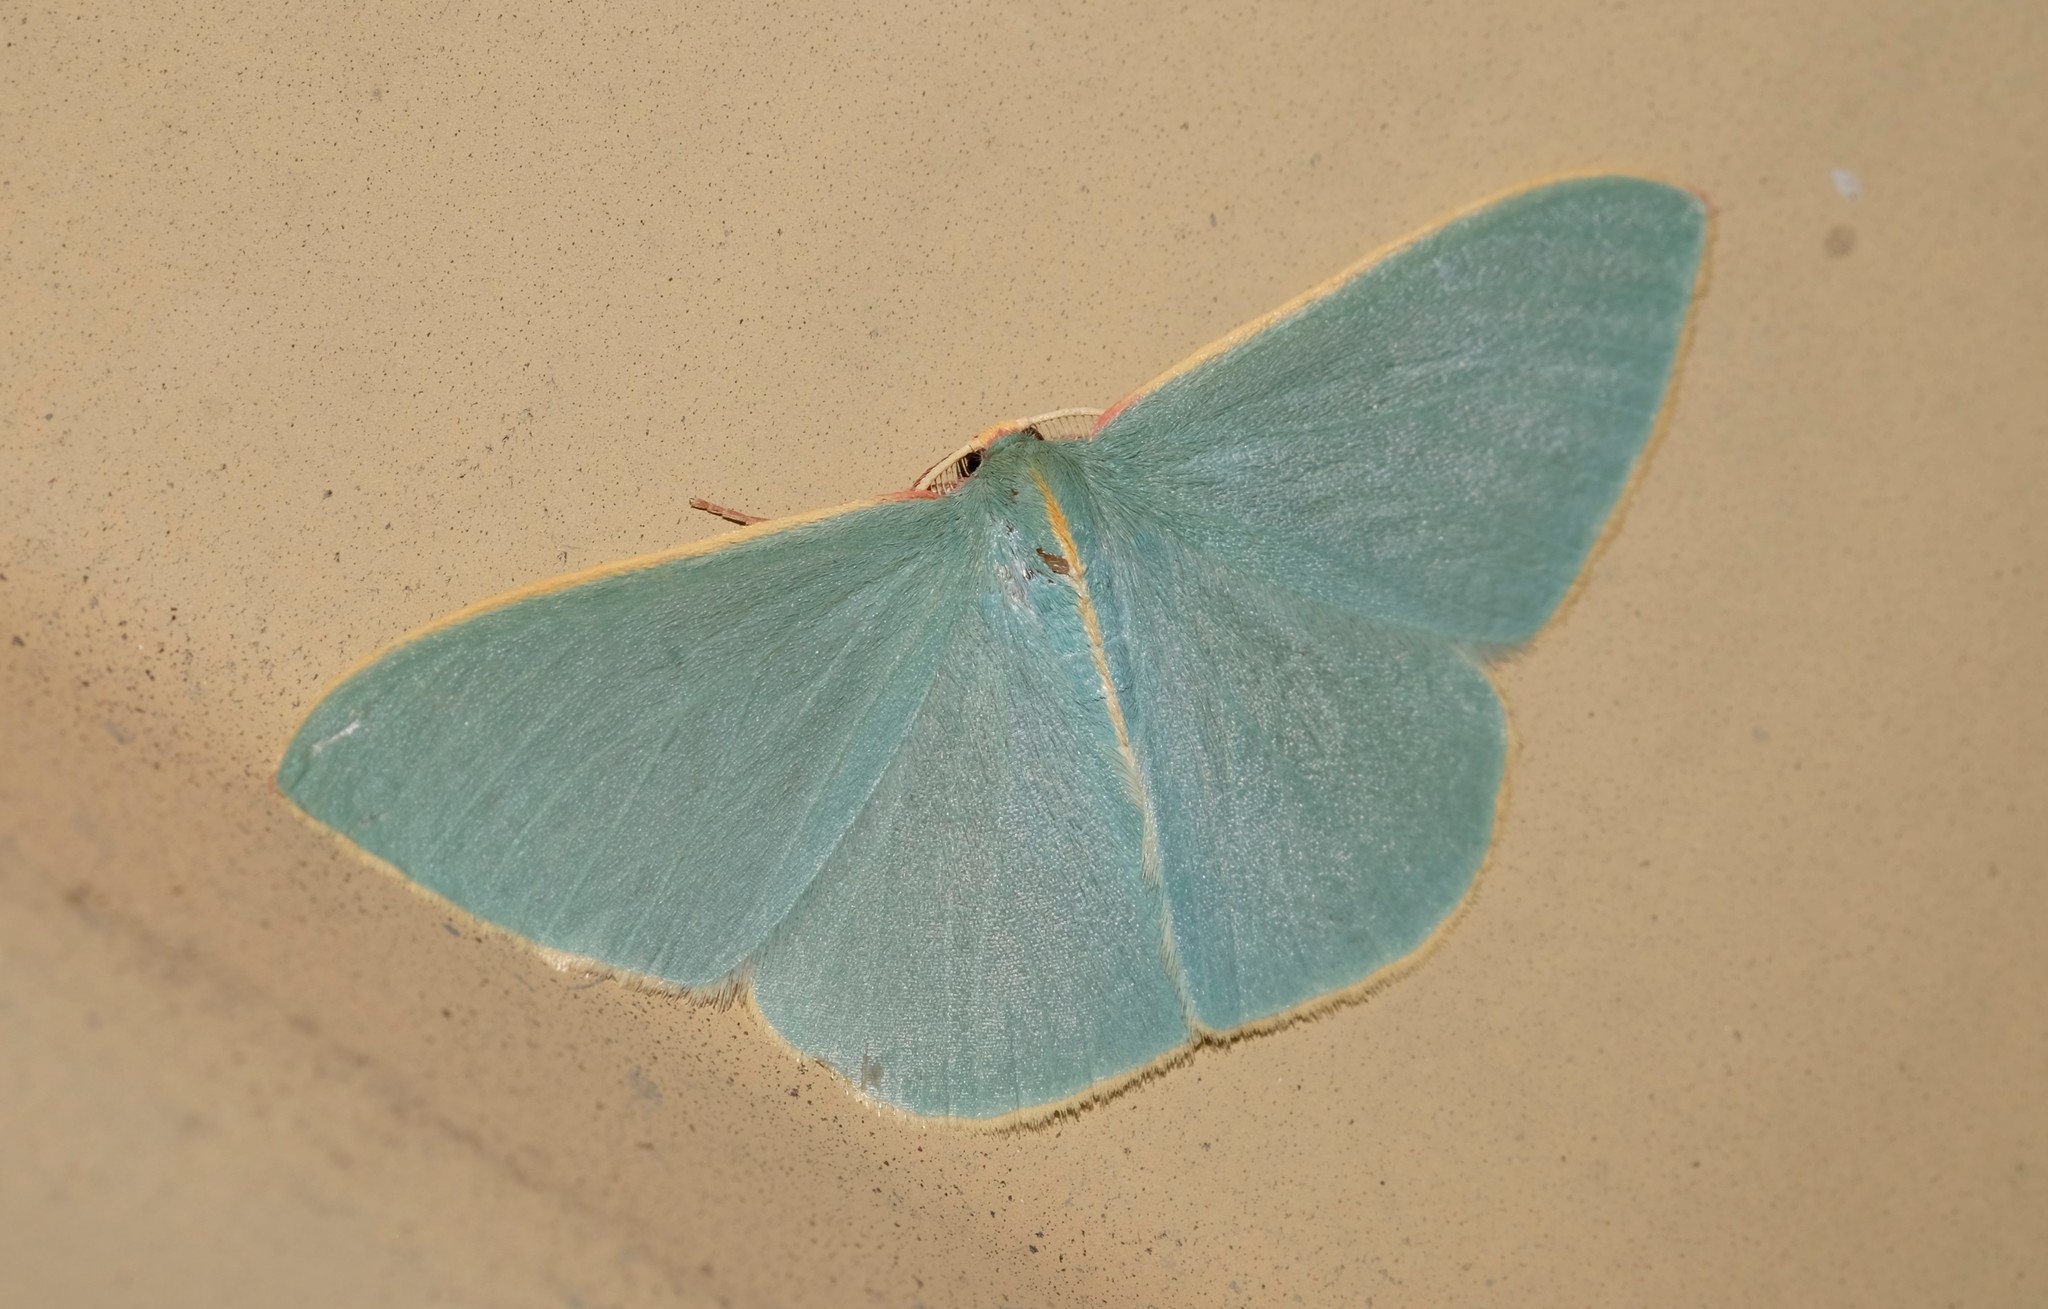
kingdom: Animalia
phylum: Arthropoda
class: Insecta
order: Lepidoptera
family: Geometridae
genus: Chlorocoma
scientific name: Chlorocoma assimilis
